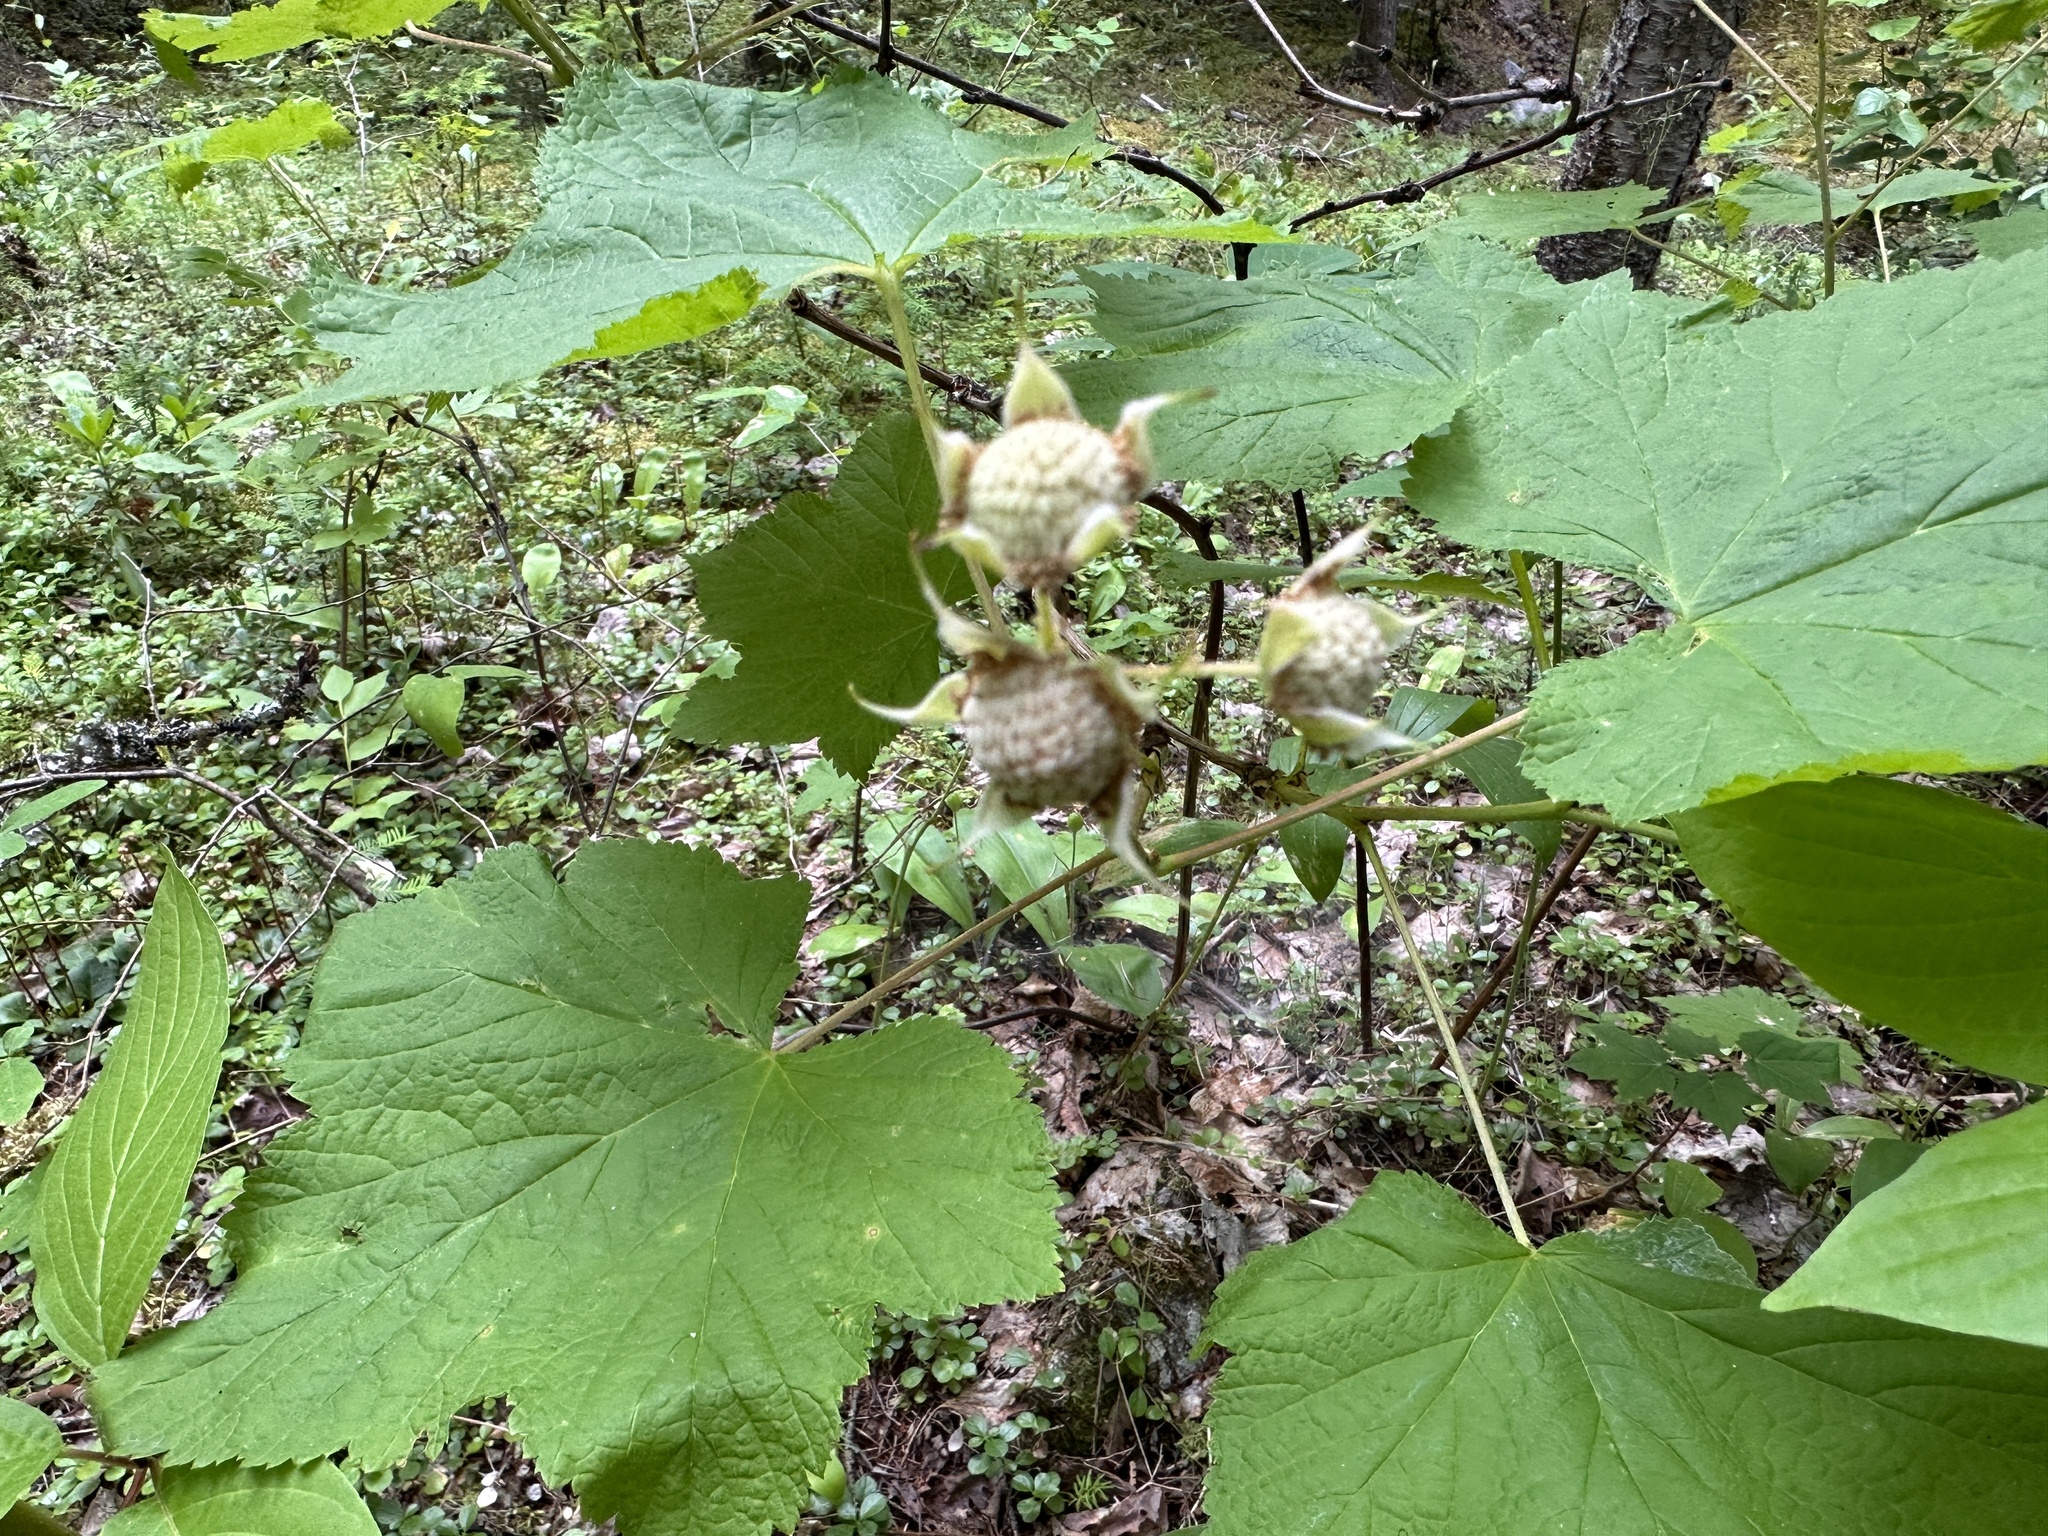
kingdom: Plantae
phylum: Tracheophyta
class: Magnoliopsida
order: Rosales
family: Rosaceae
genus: Rubus
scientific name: Rubus parviflorus
